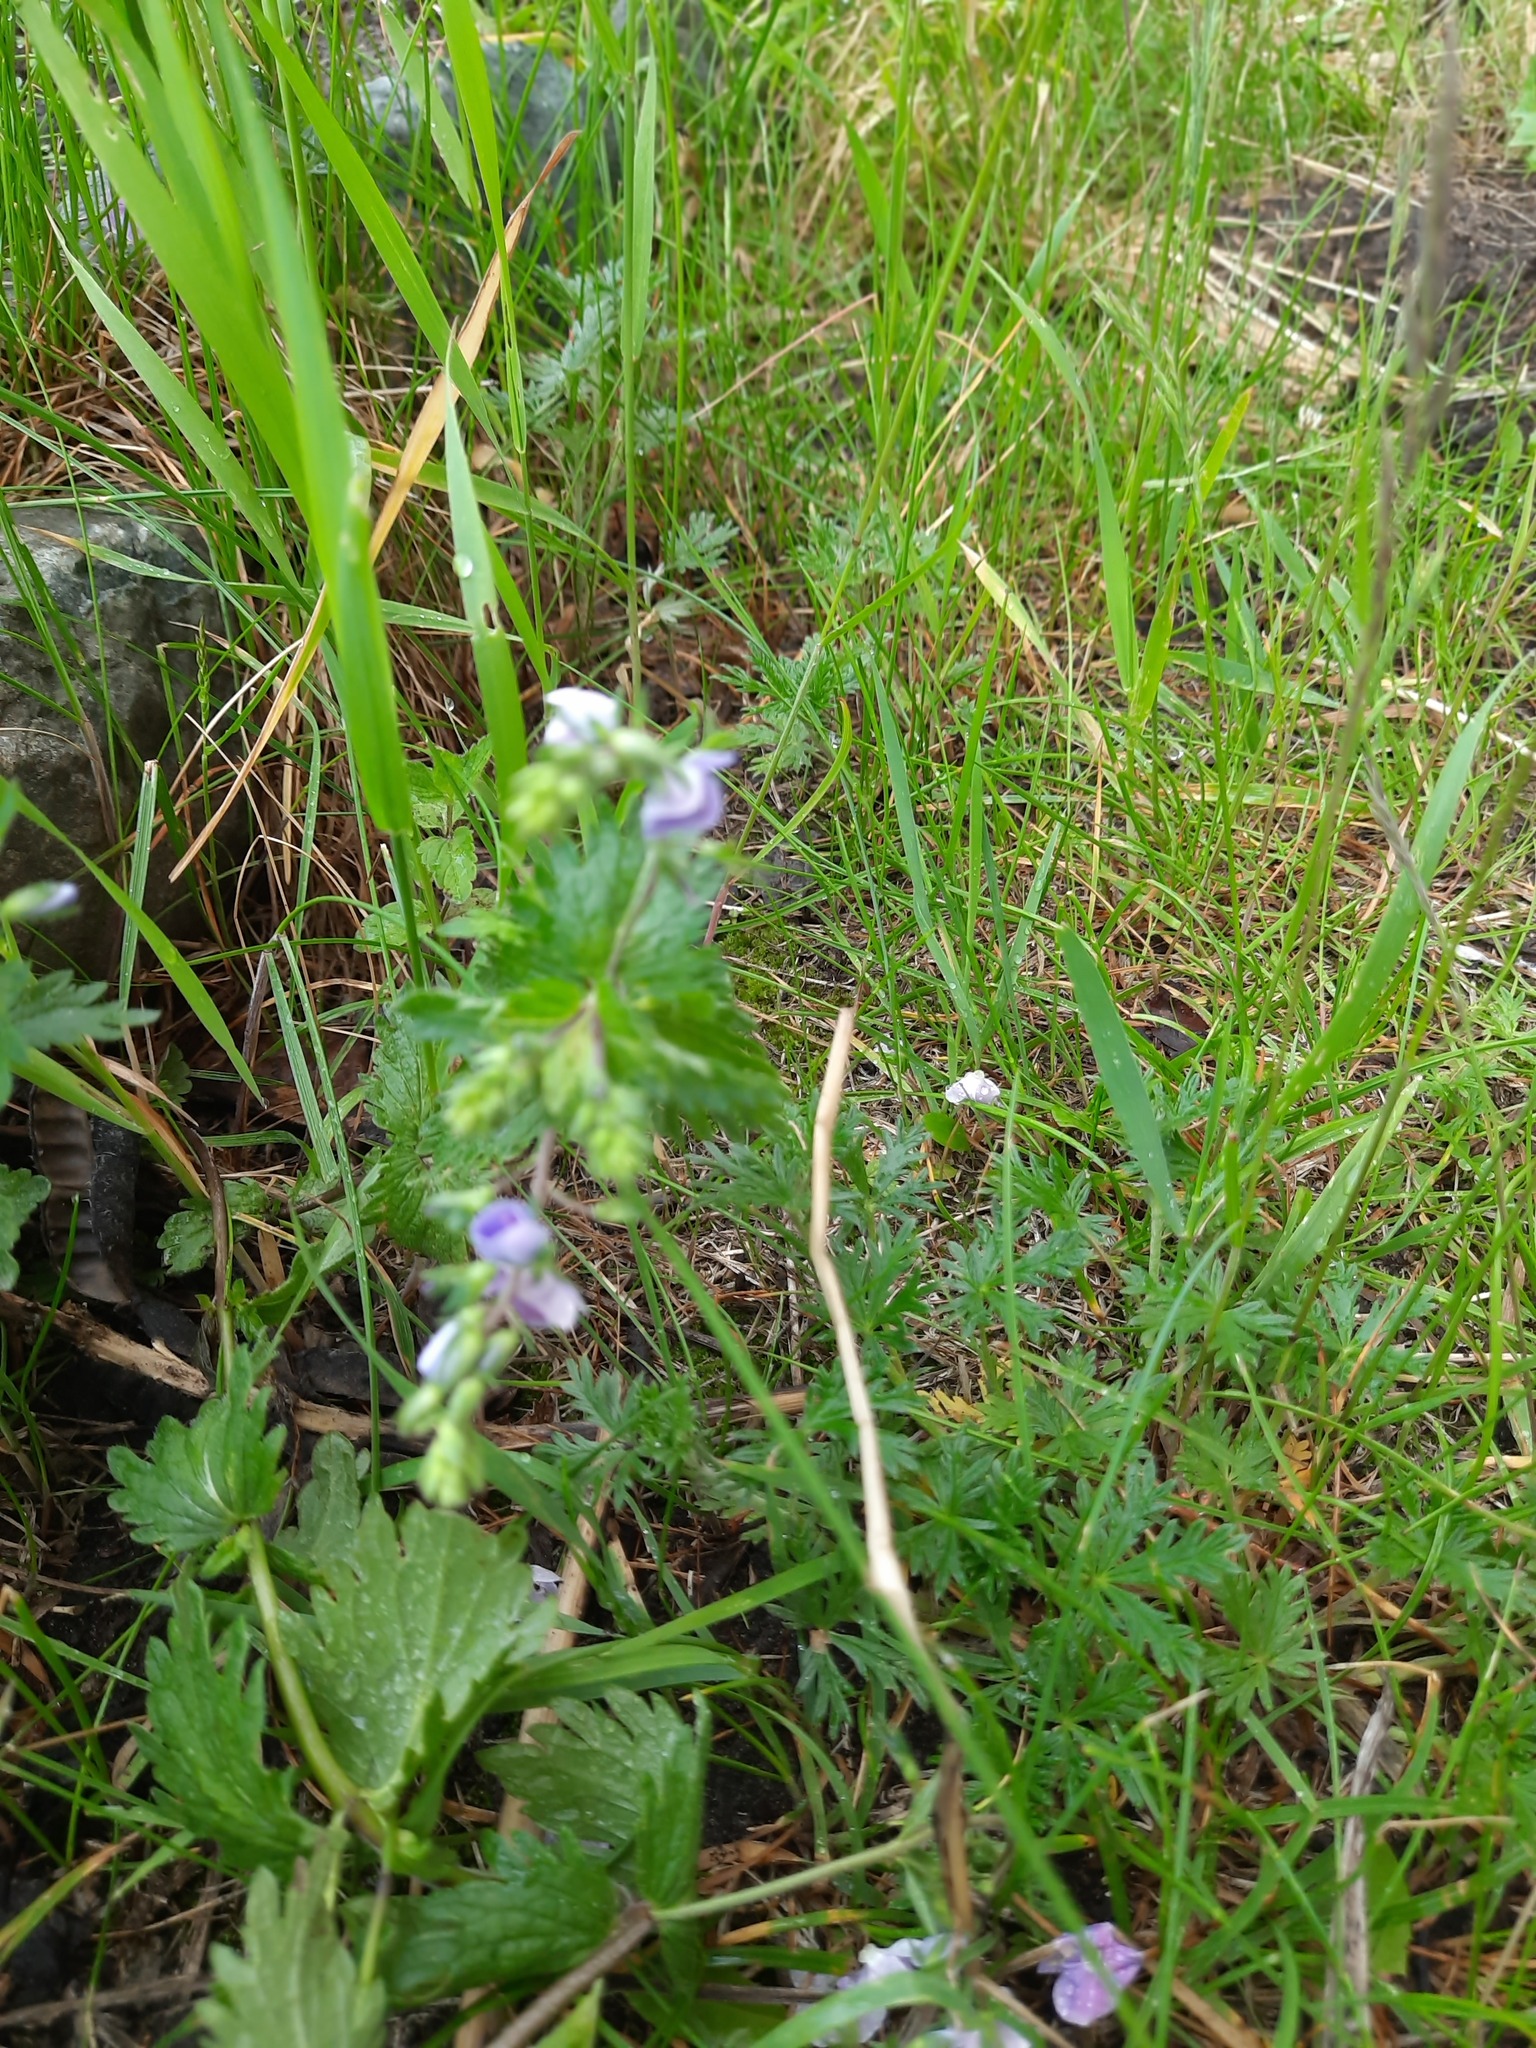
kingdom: Plantae
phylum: Tracheophyta
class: Magnoliopsida
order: Lamiales
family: Plantaginaceae
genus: Veronica
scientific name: Veronica chamaedrys
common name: Germander speedwell
